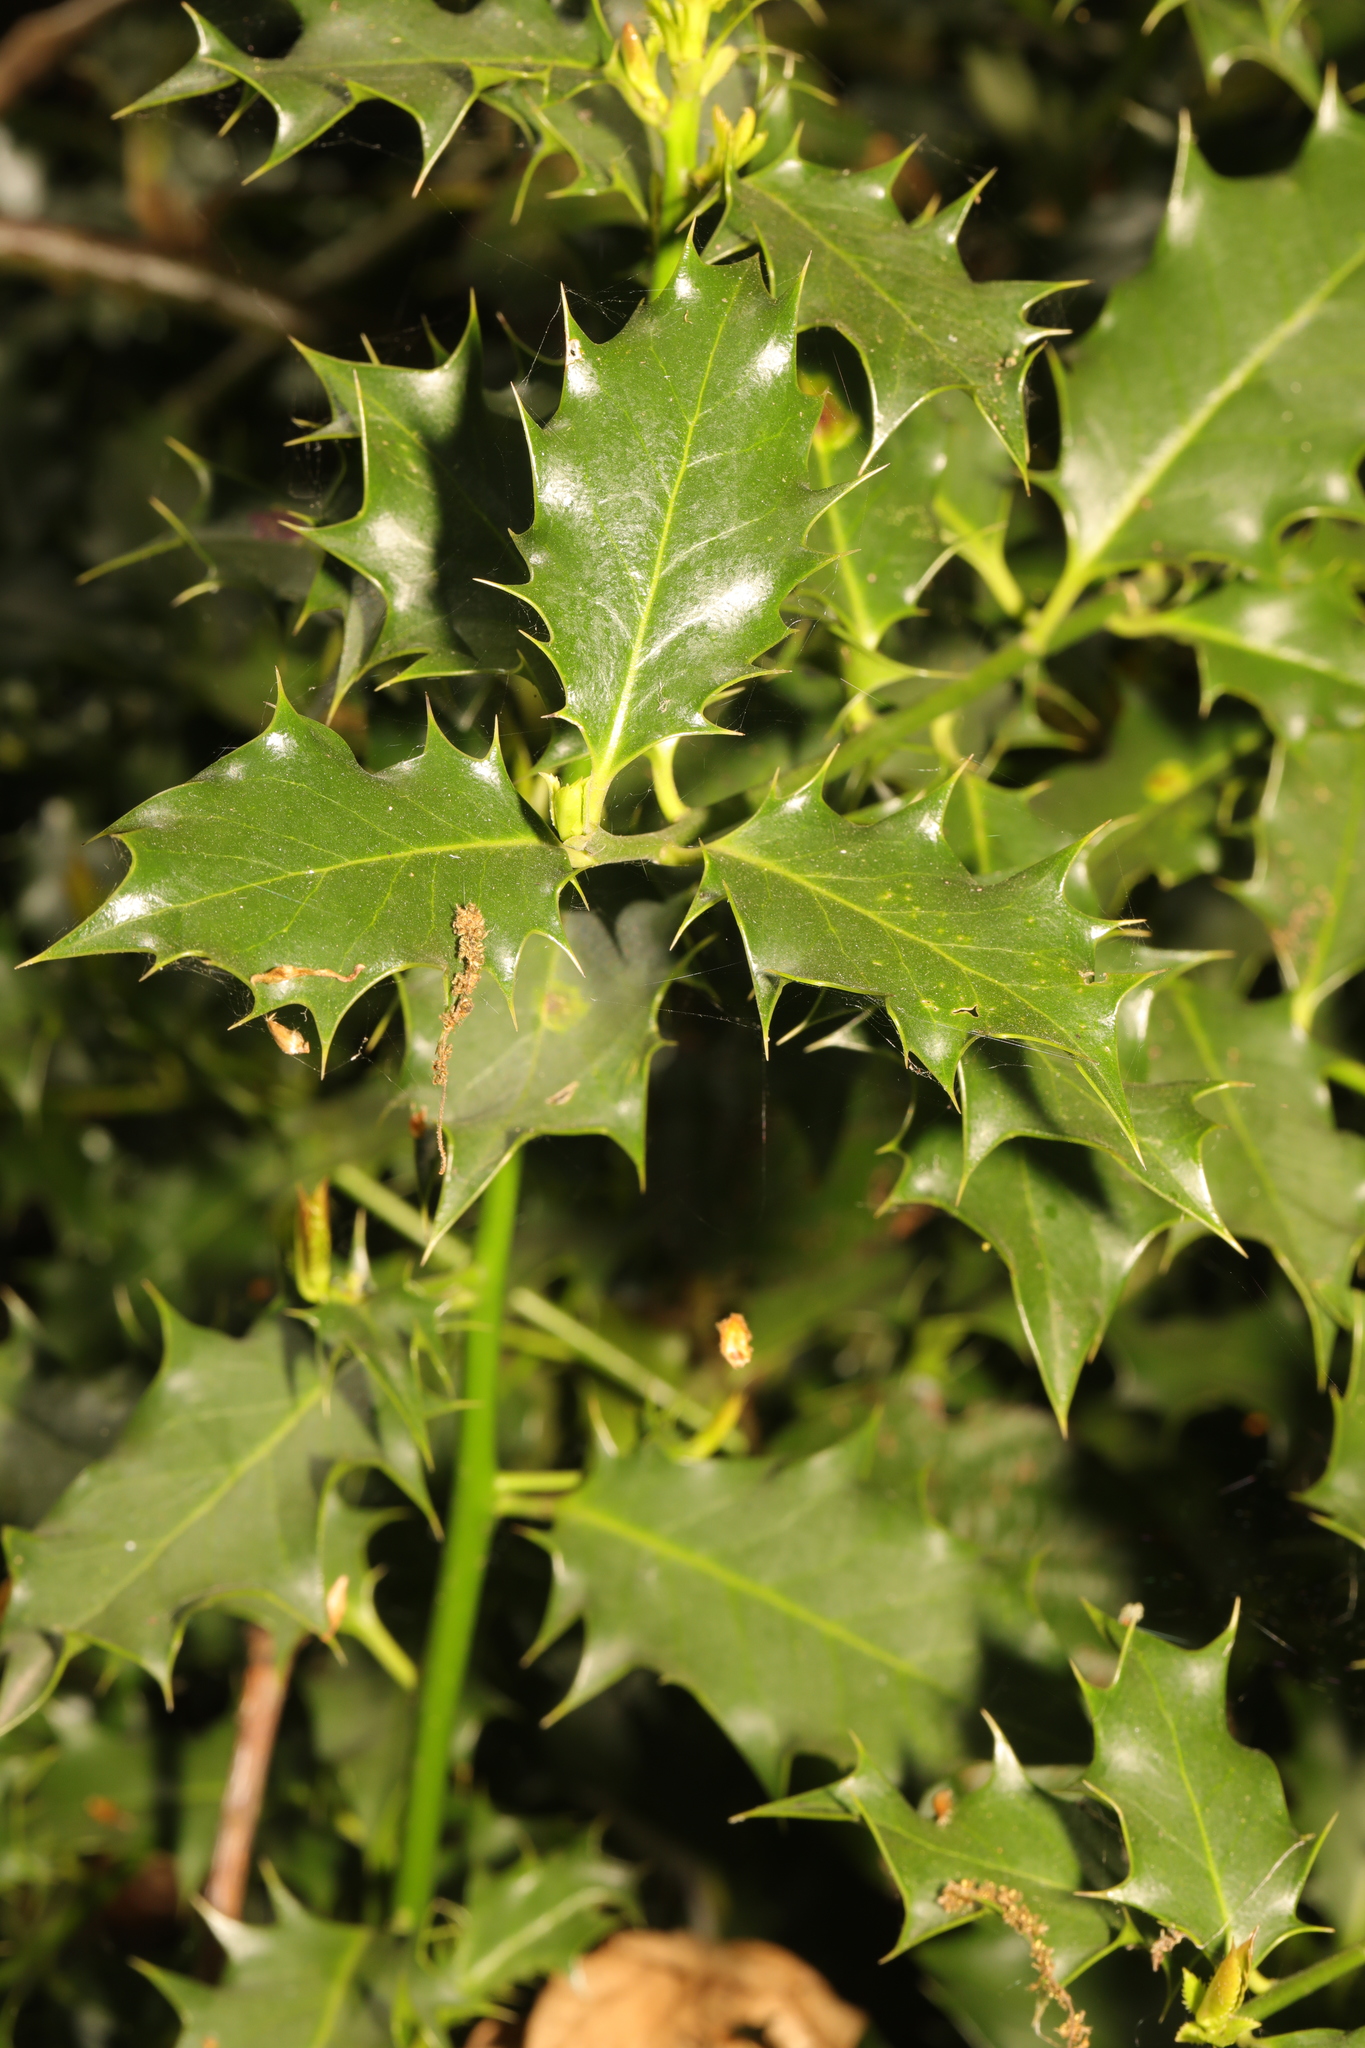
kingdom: Plantae
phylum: Tracheophyta
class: Magnoliopsida
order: Aquifoliales
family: Aquifoliaceae
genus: Ilex
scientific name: Ilex aquifolium
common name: English holly
